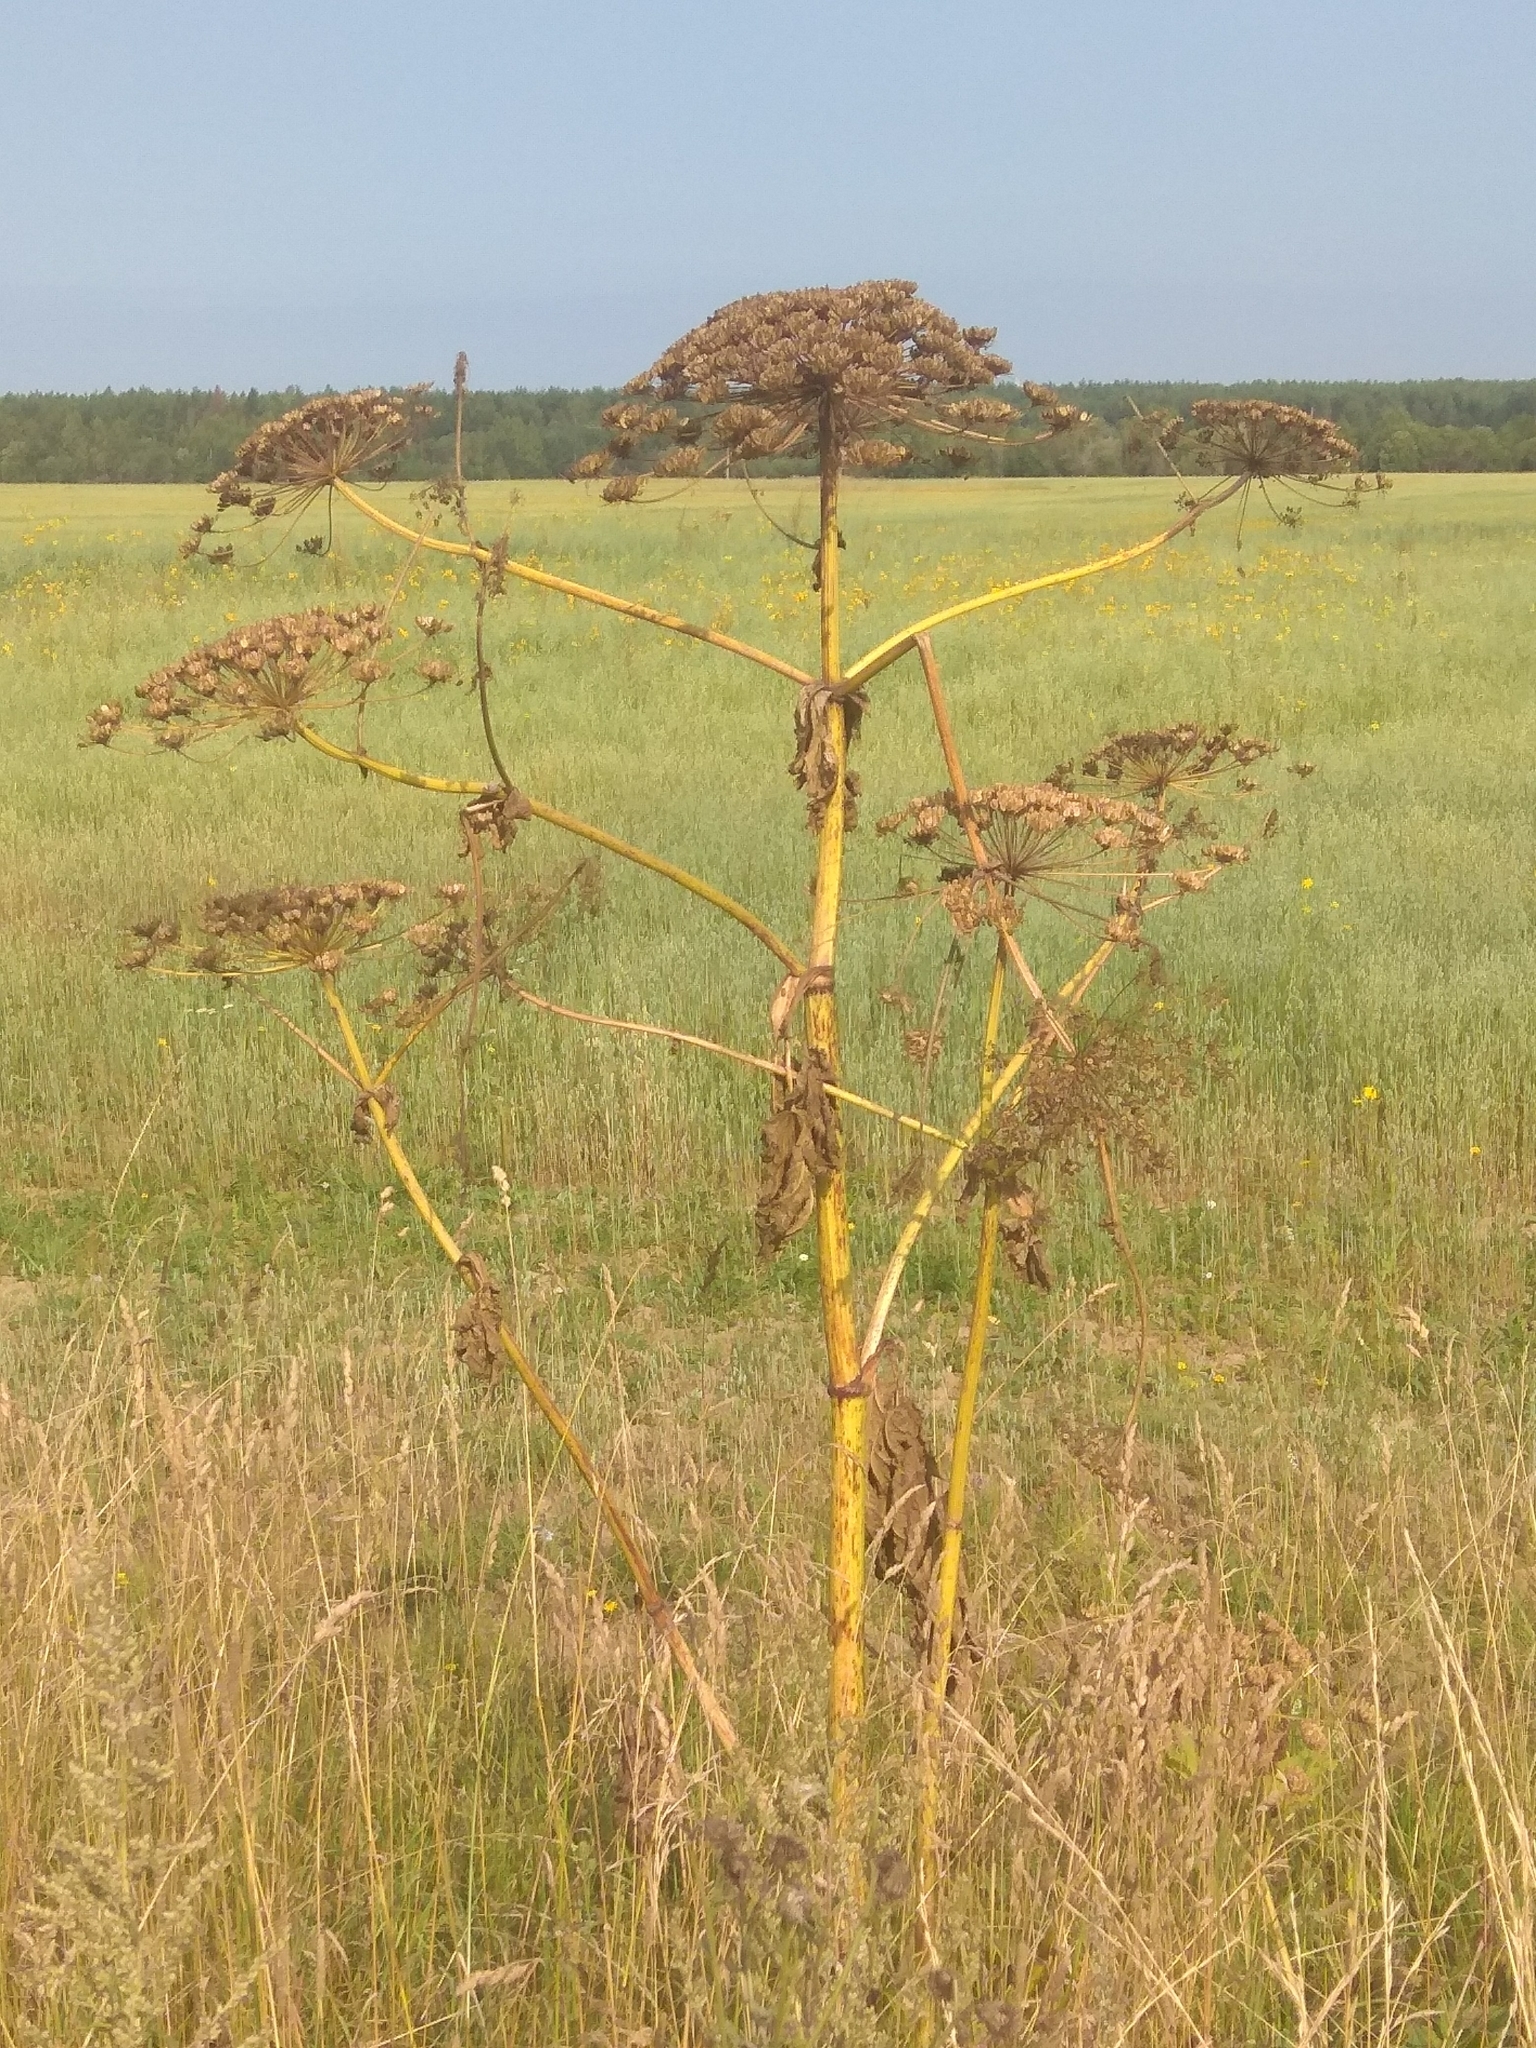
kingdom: Plantae
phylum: Tracheophyta
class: Magnoliopsida
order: Apiales
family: Apiaceae
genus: Heracleum
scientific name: Heracleum sosnowskyi
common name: Sosnowsky's hogweed
